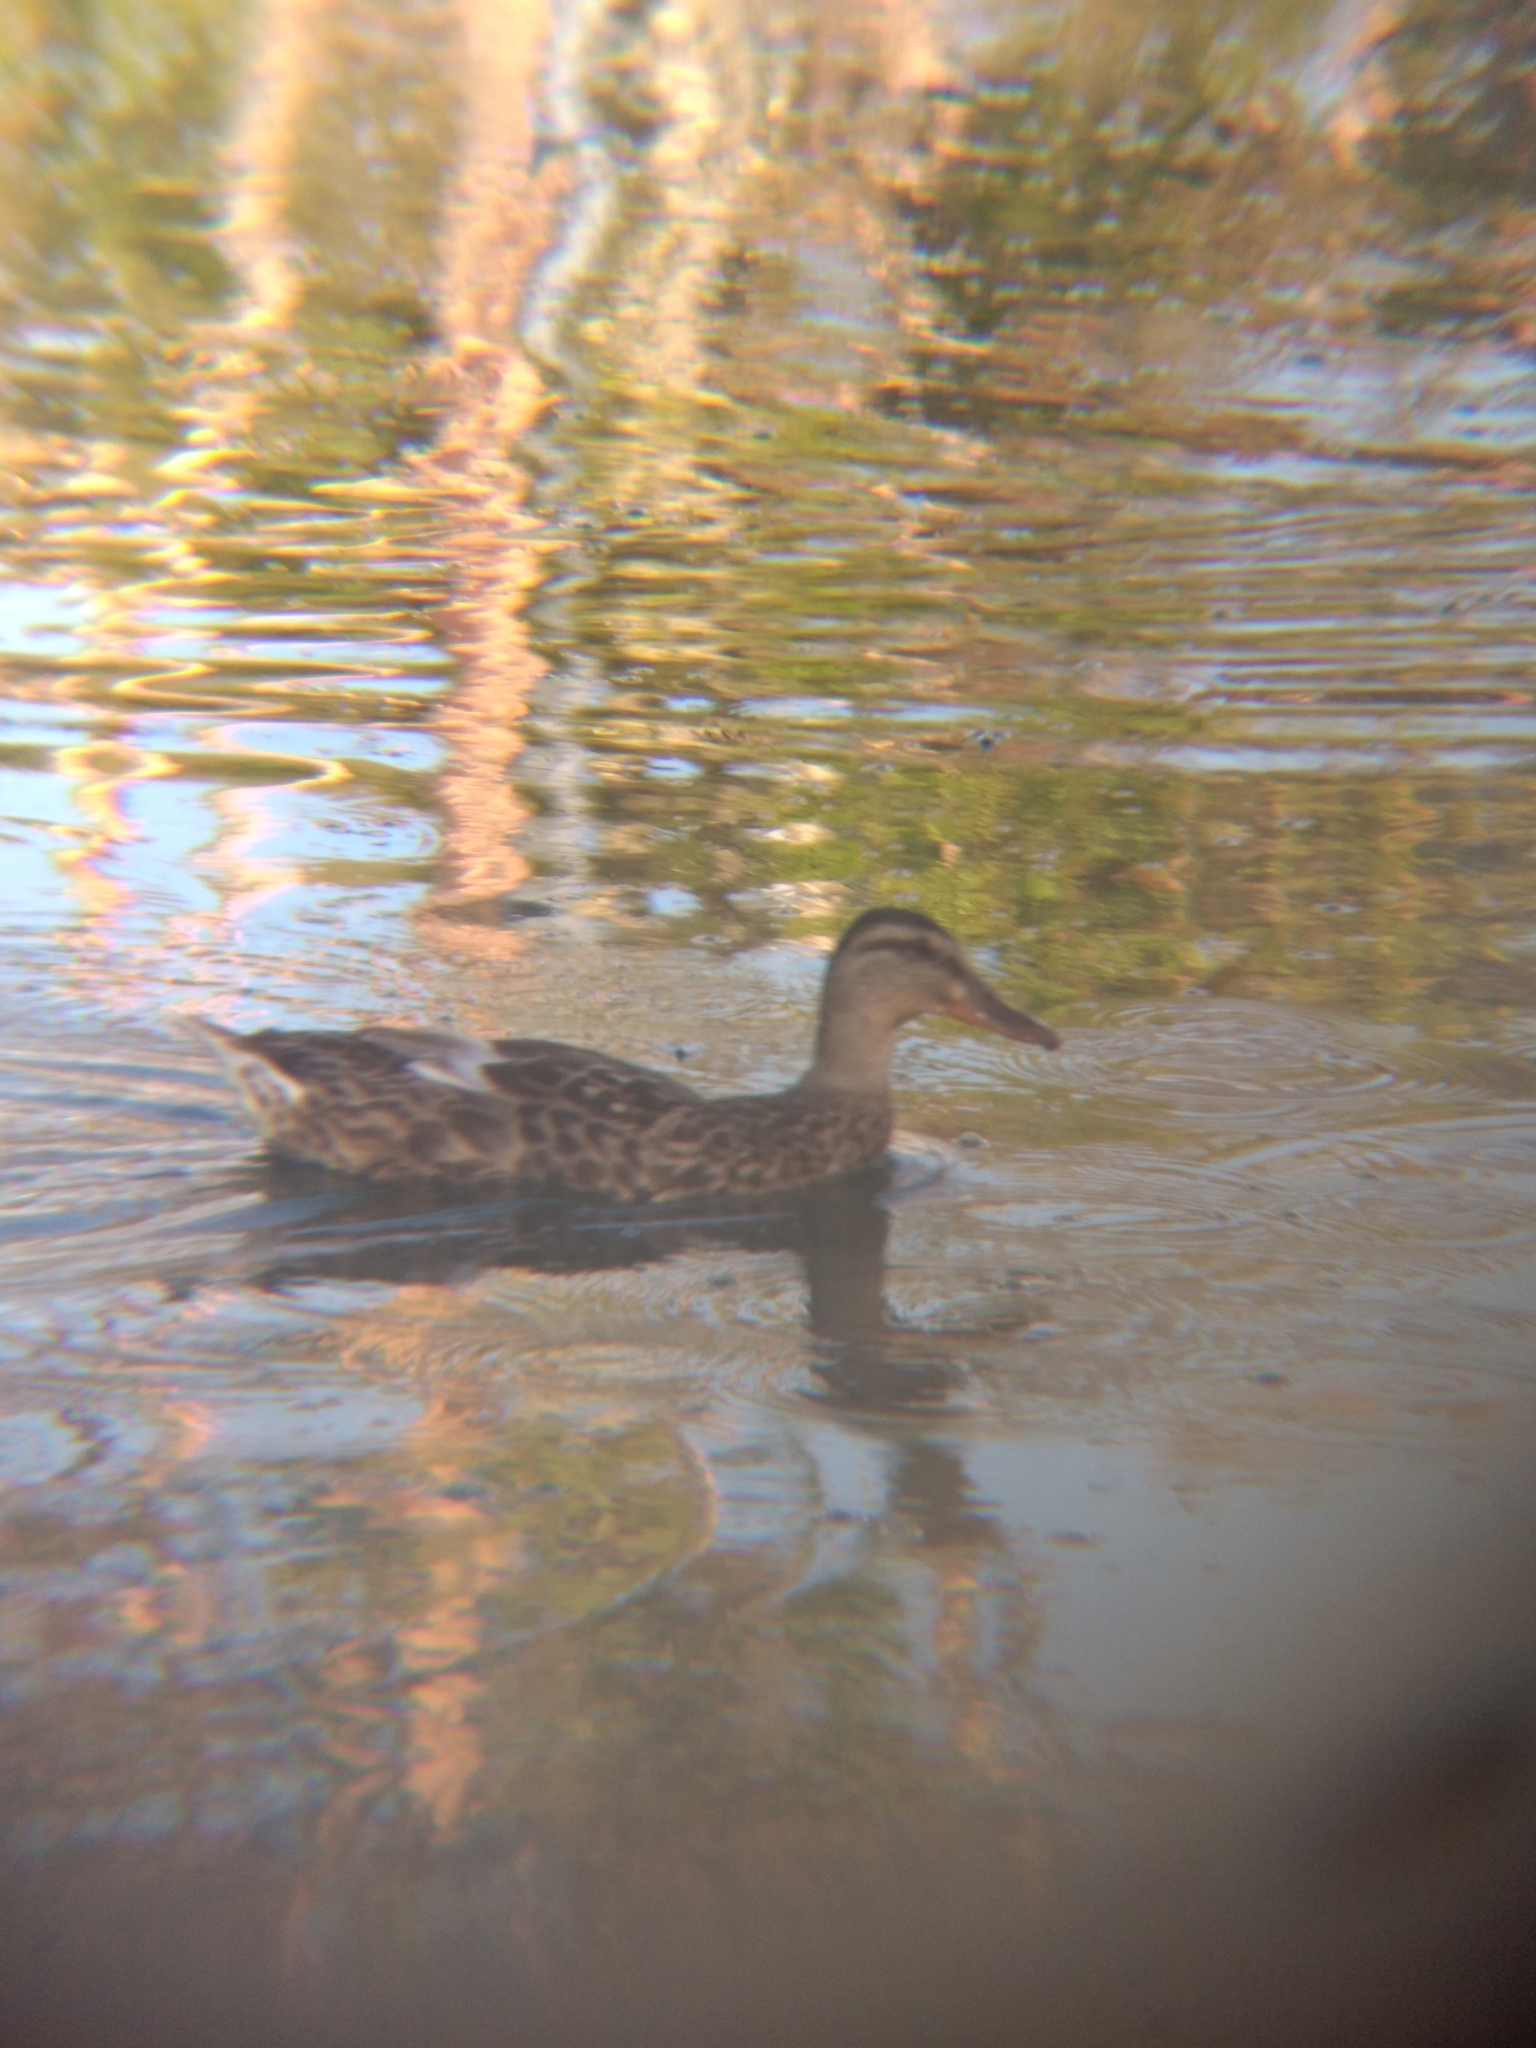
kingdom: Animalia
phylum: Chordata
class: Aves
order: Anseriformes
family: Anatidae
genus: Anas
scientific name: Anas platyrhynchos
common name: Mallard
